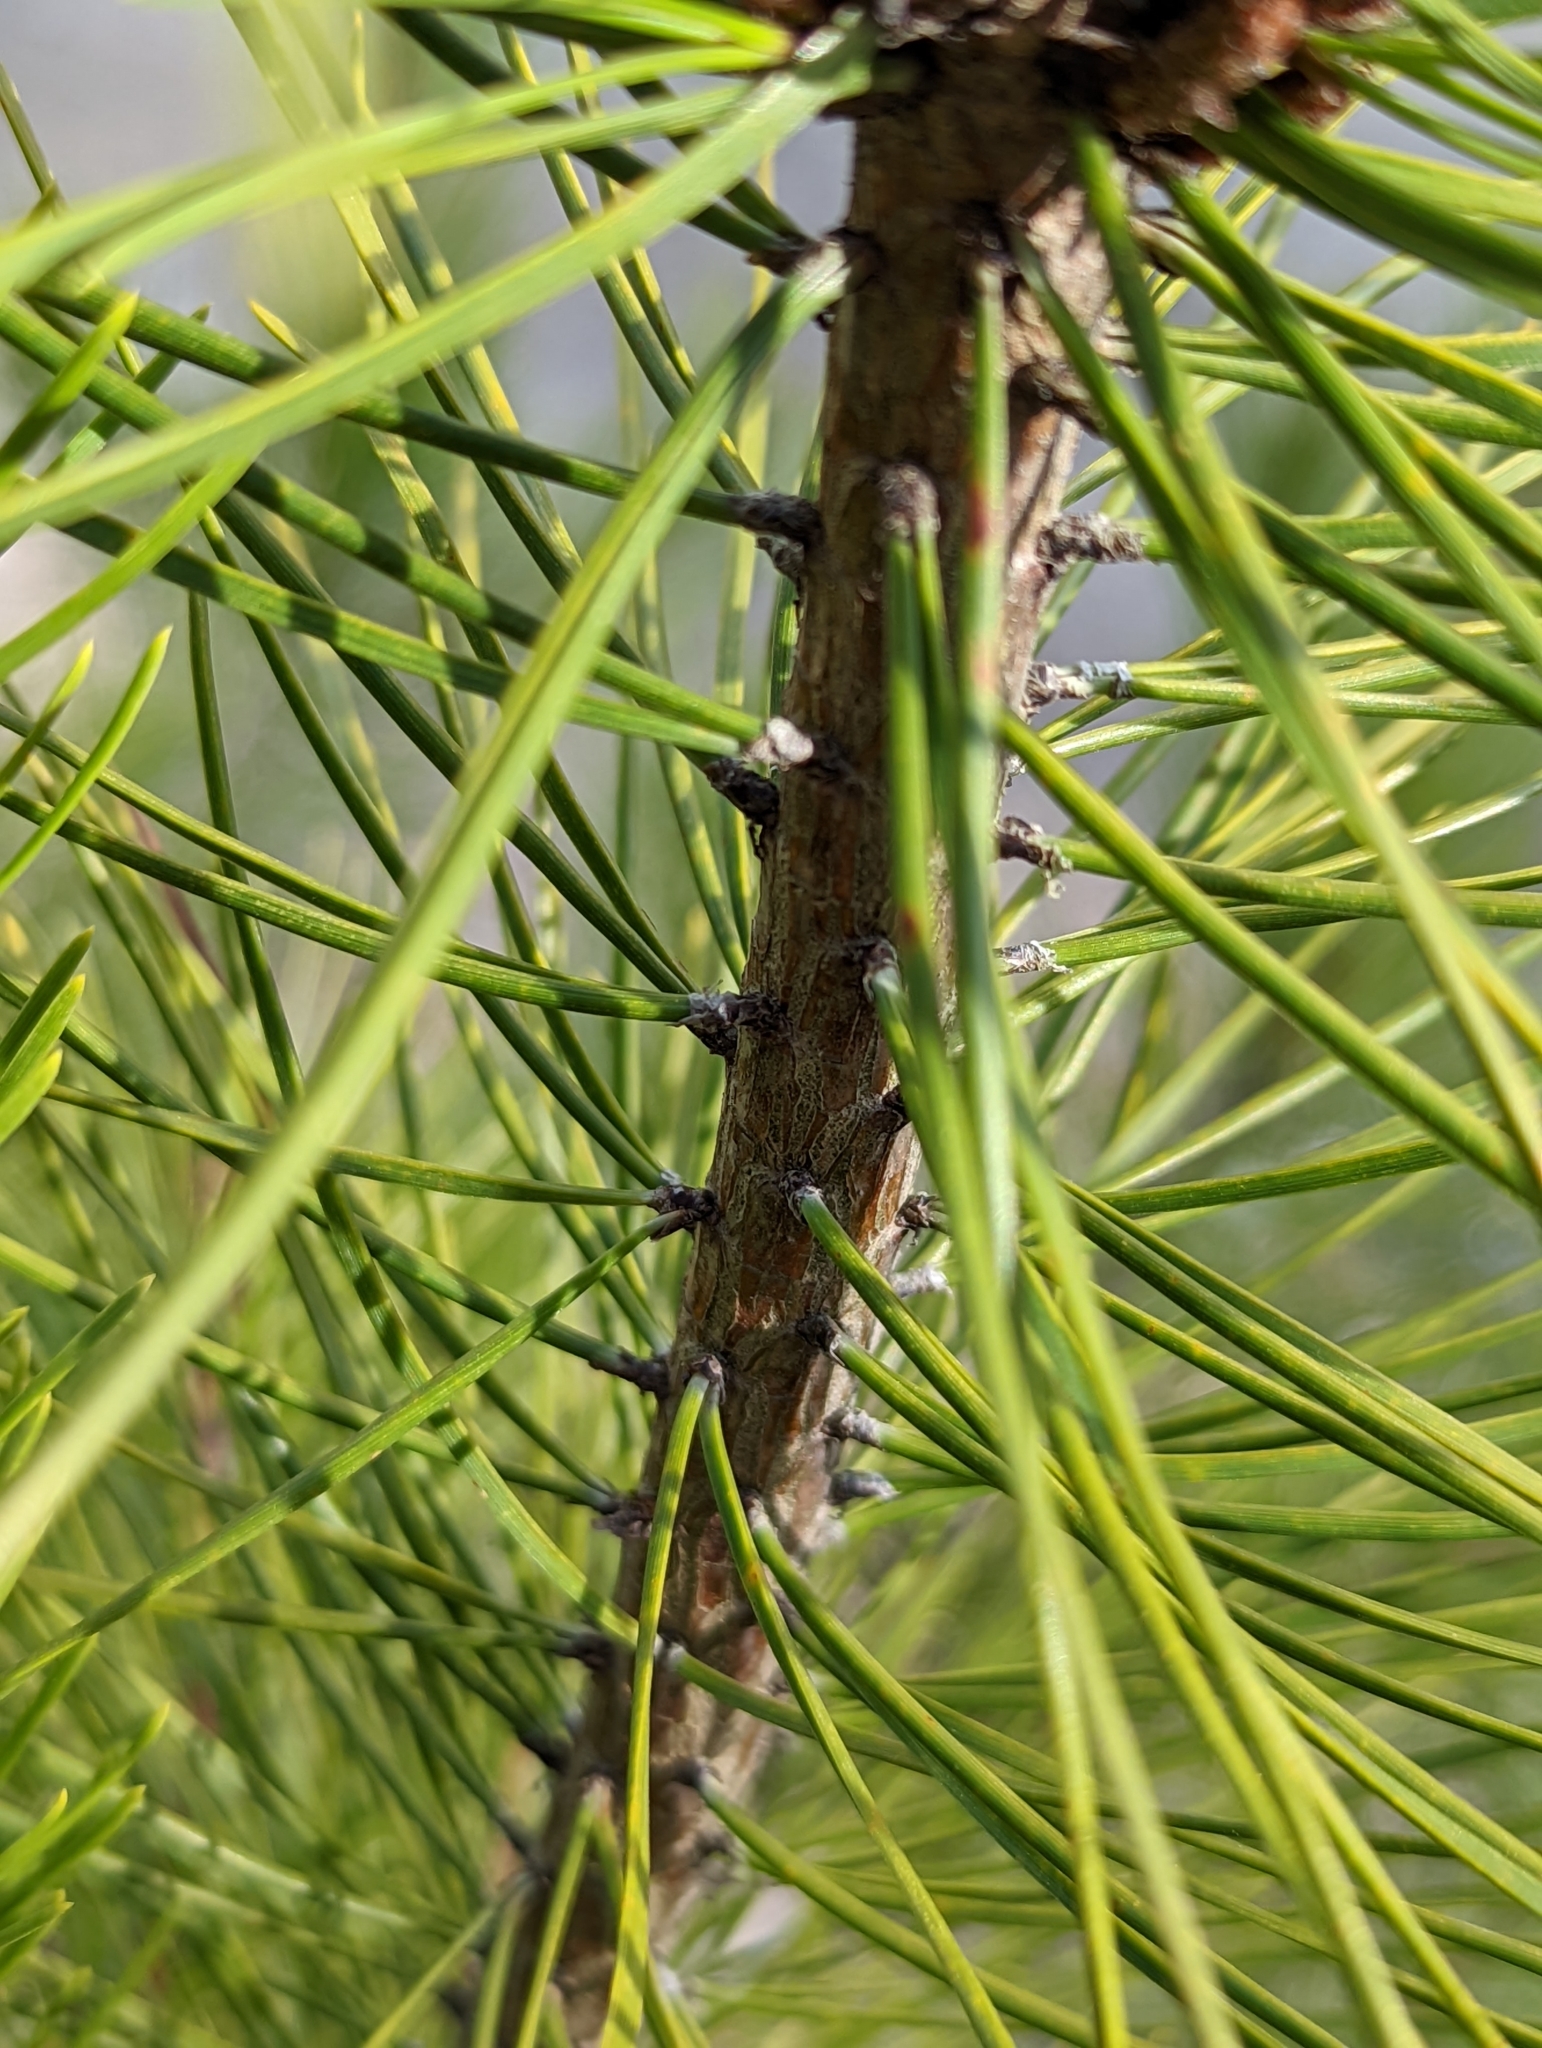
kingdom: Plantae
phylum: Tracheophyta
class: Pinopsida
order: Pinales
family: Pinaceae
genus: Pinus
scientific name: Pinus contorta
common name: Lodgepole pine
